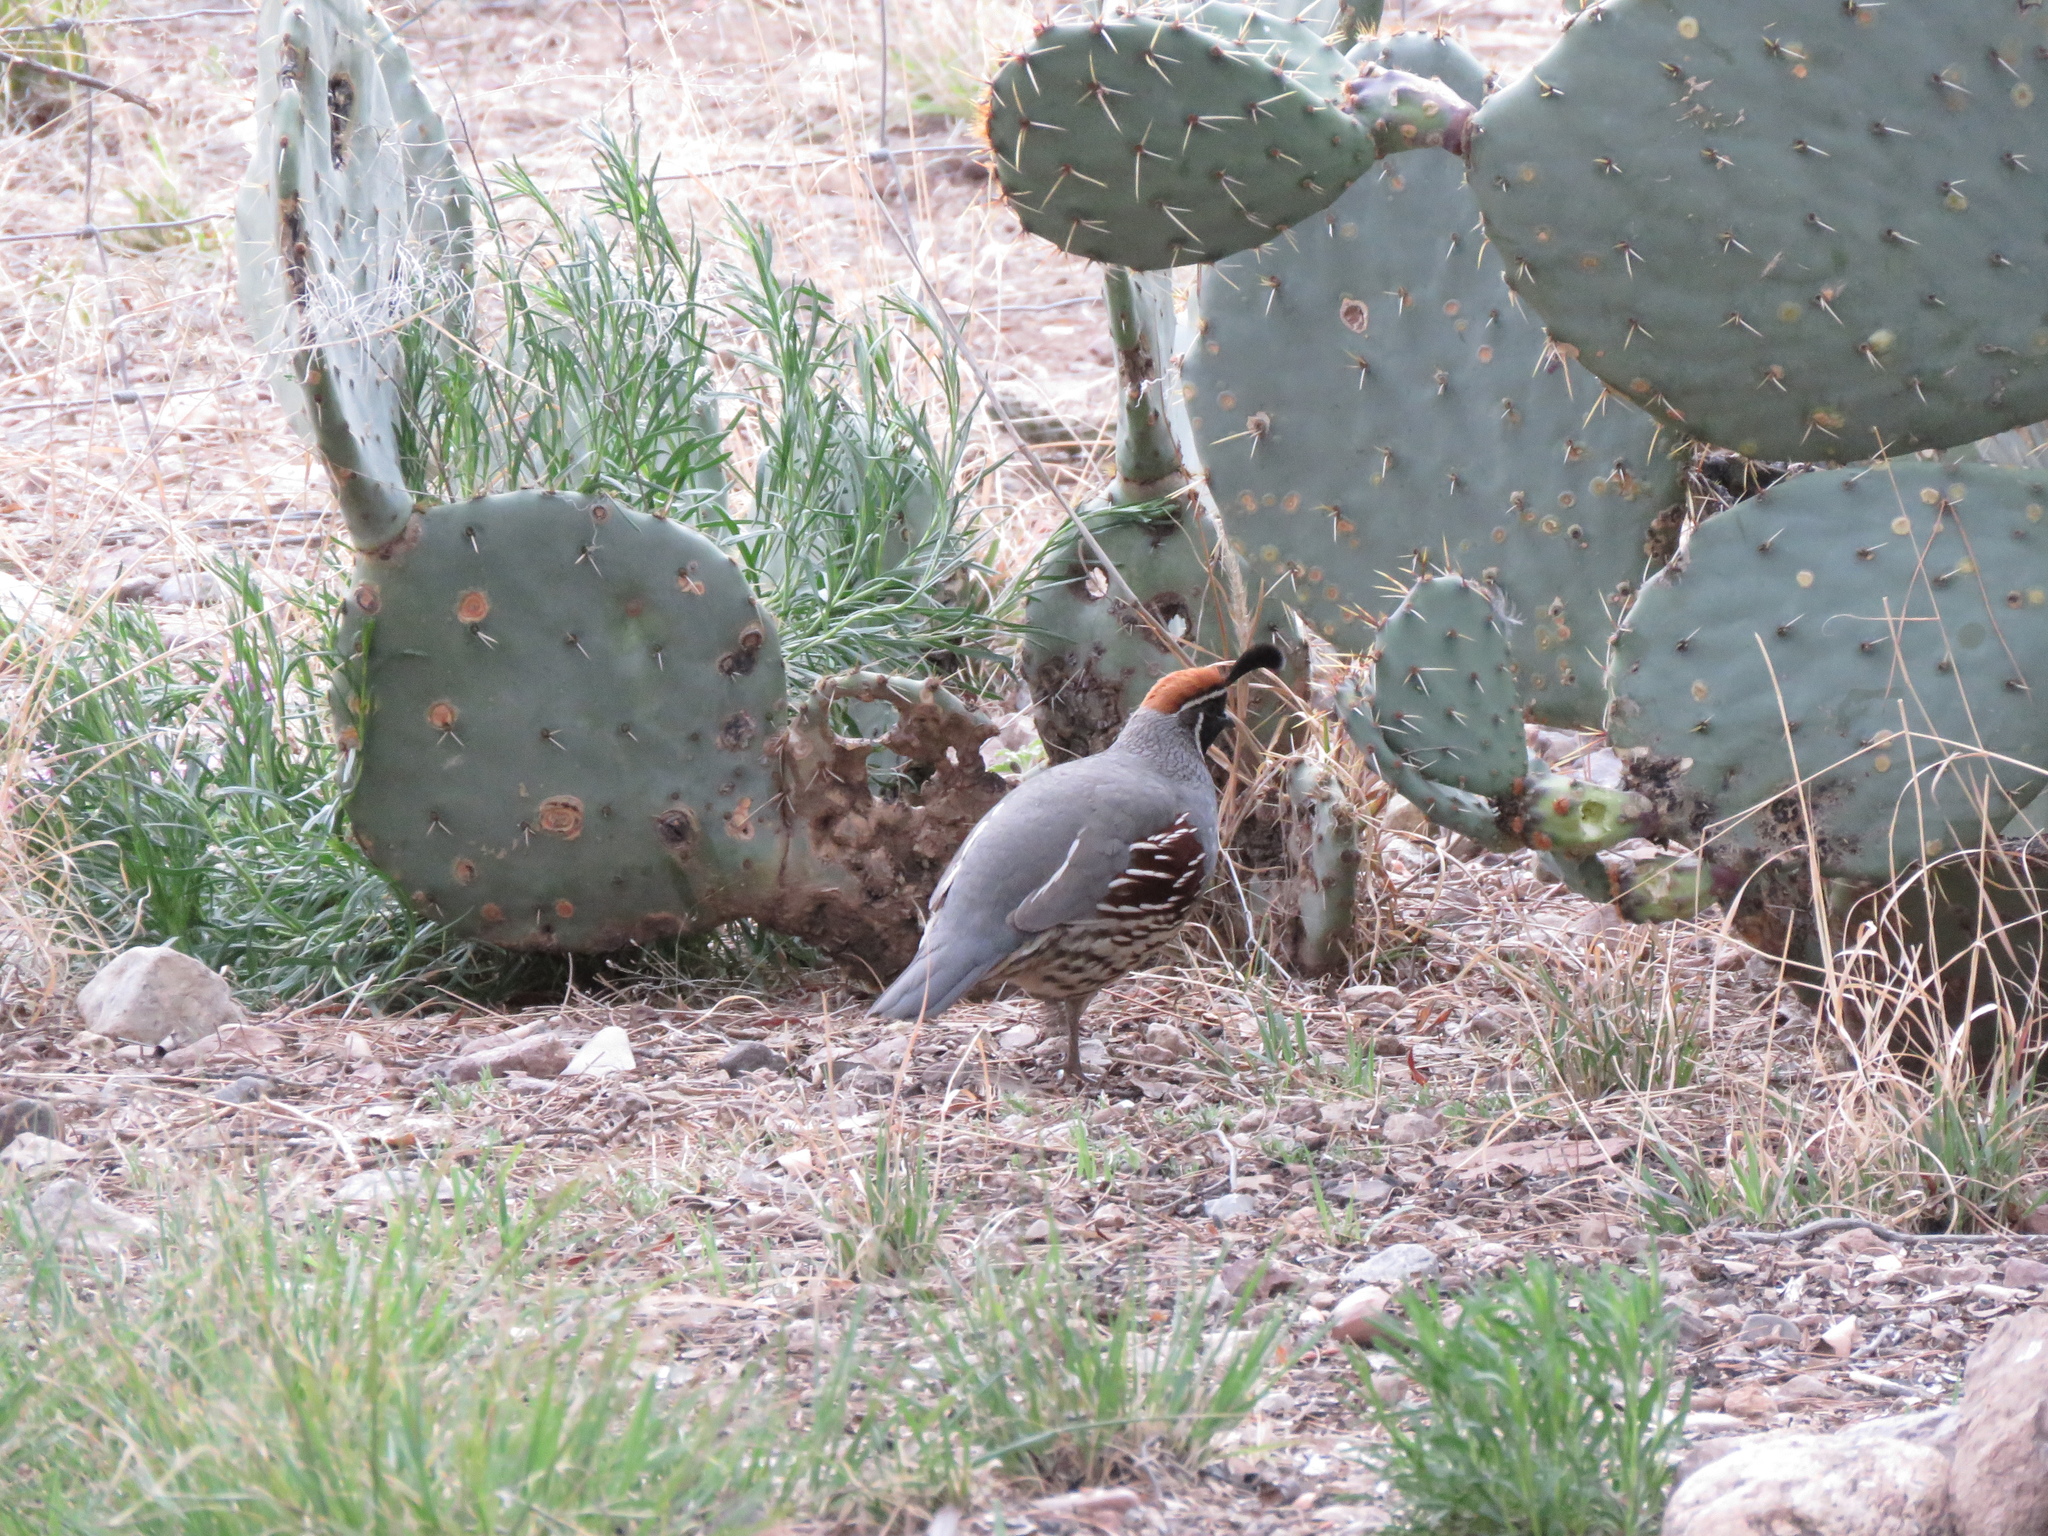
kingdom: Animalia
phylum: Chordata
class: Aves
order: Galliformes
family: Odontophoridae
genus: Callipepla
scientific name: Callipepla gambelii
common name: Gambel's quail
